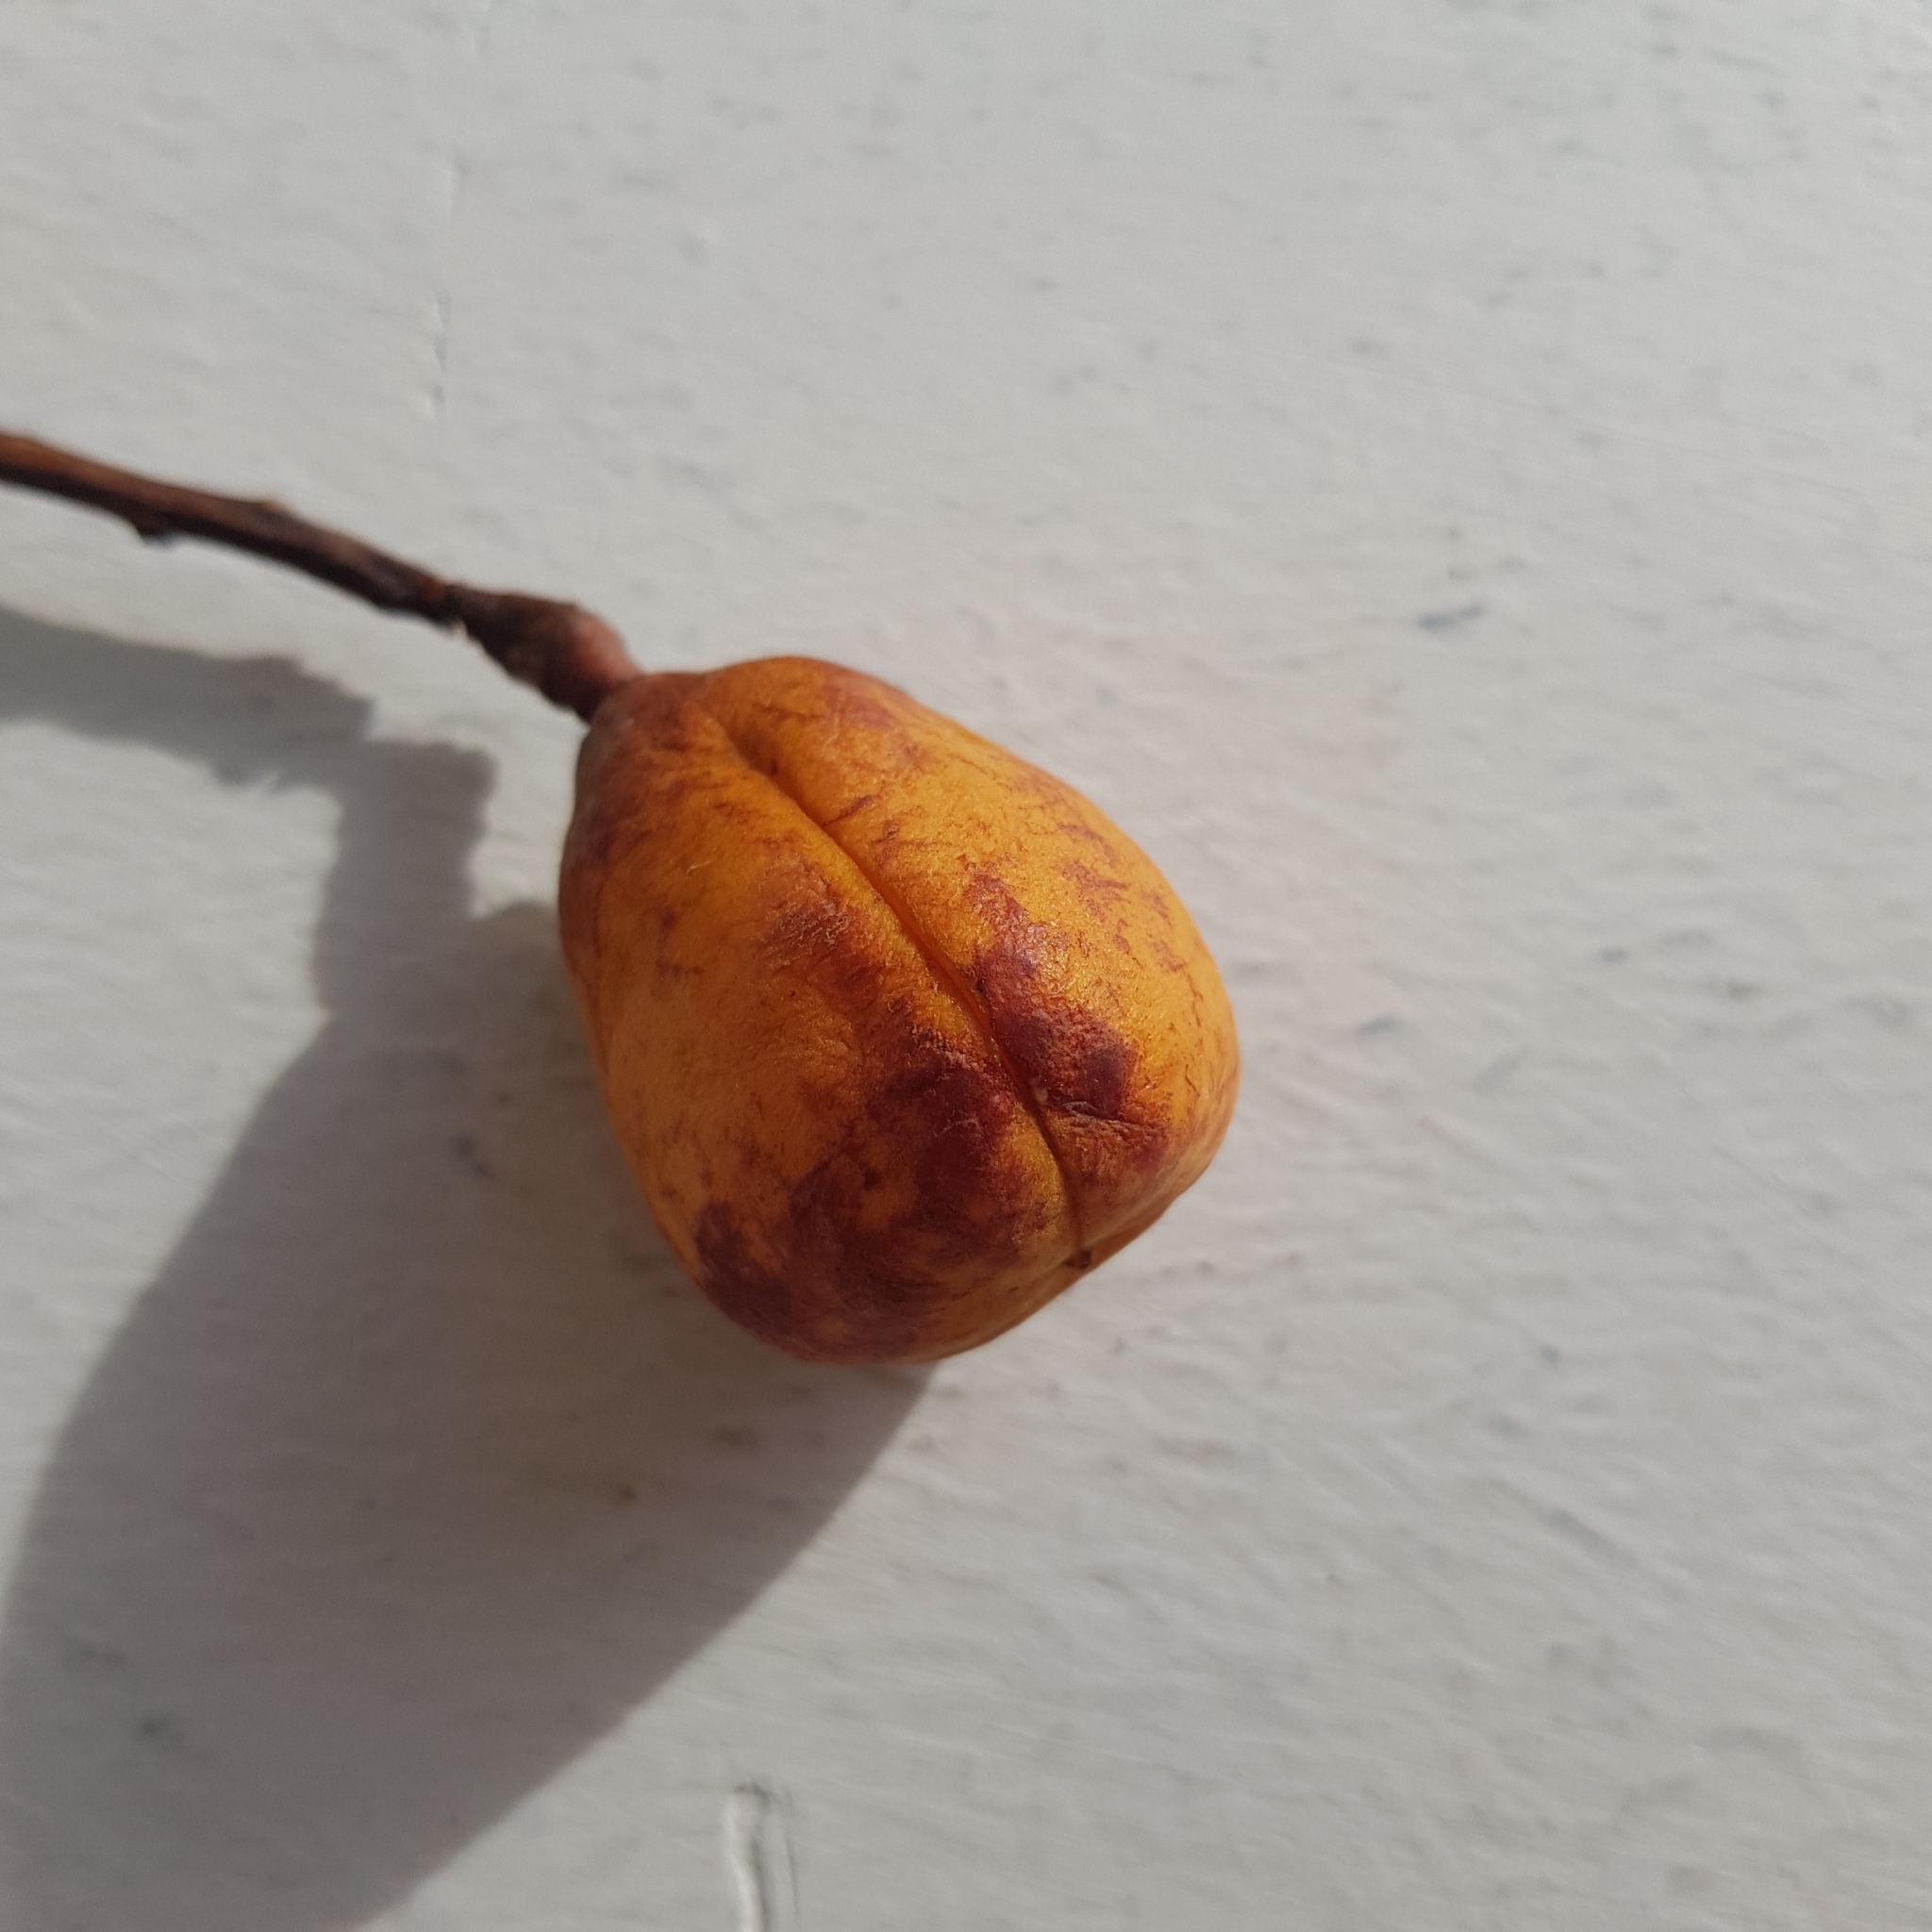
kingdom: Plantae
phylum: Tracheophyta
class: Magnoliopsida
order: Sapindales
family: Sapindaceae
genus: Trigonachras
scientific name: Trigonachras acuta
